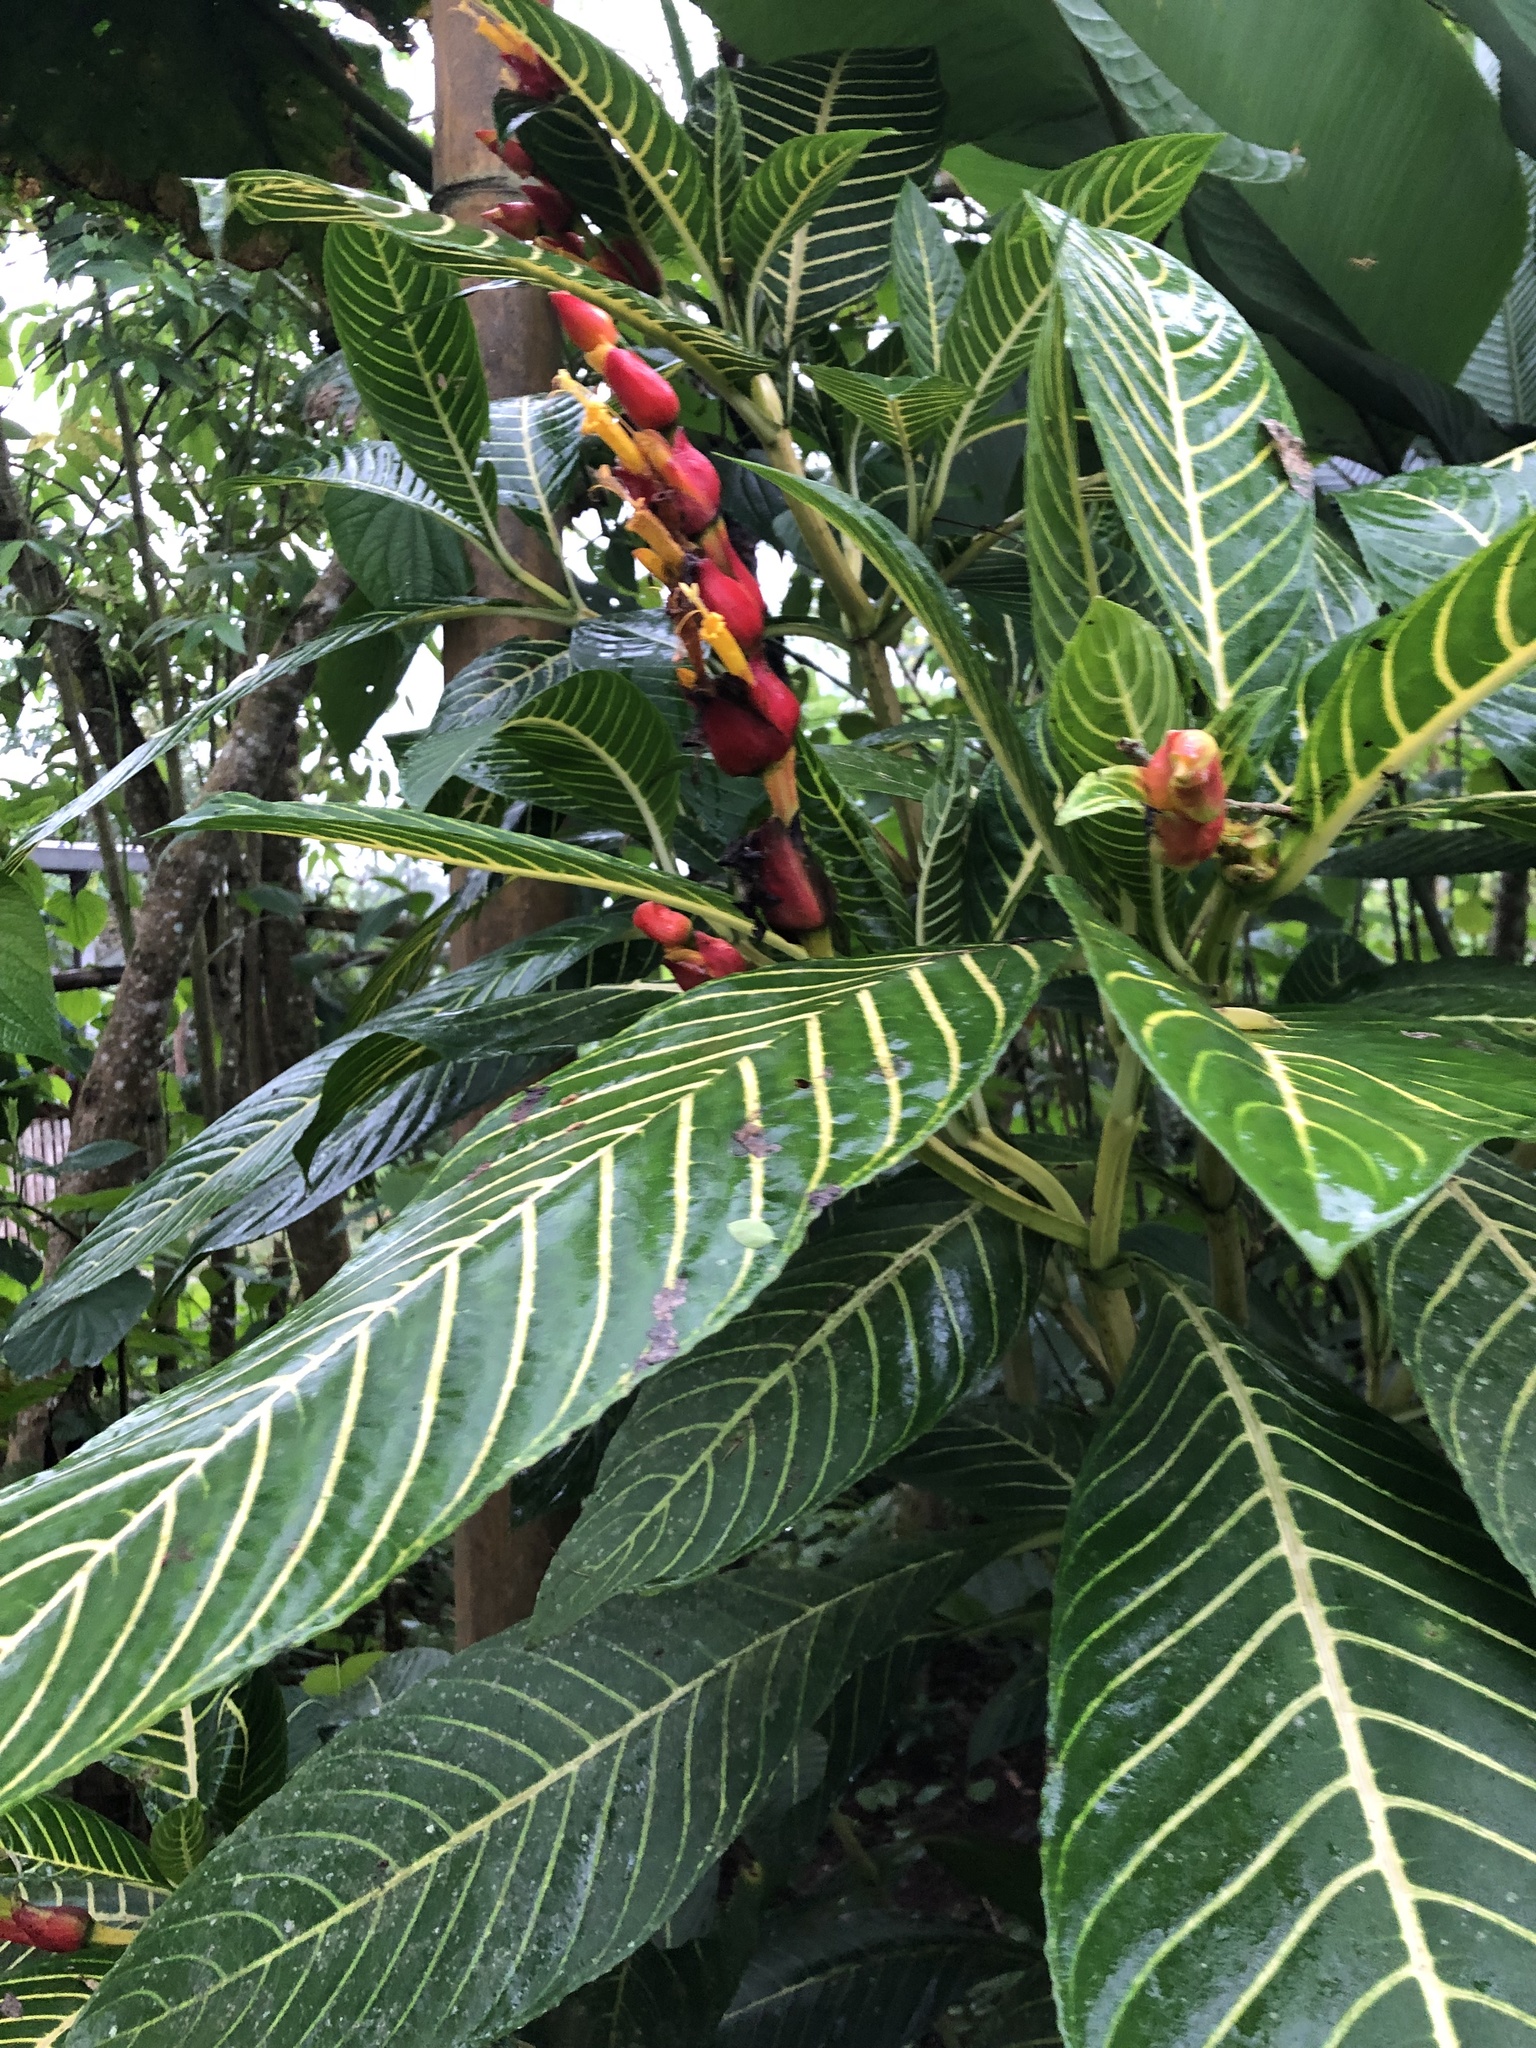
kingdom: Plantae
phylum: Tracheophyta
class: Magnoliopsida
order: Lamiales
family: Acanthaceae
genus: Sanchezia
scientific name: Sanchezia oblonga
